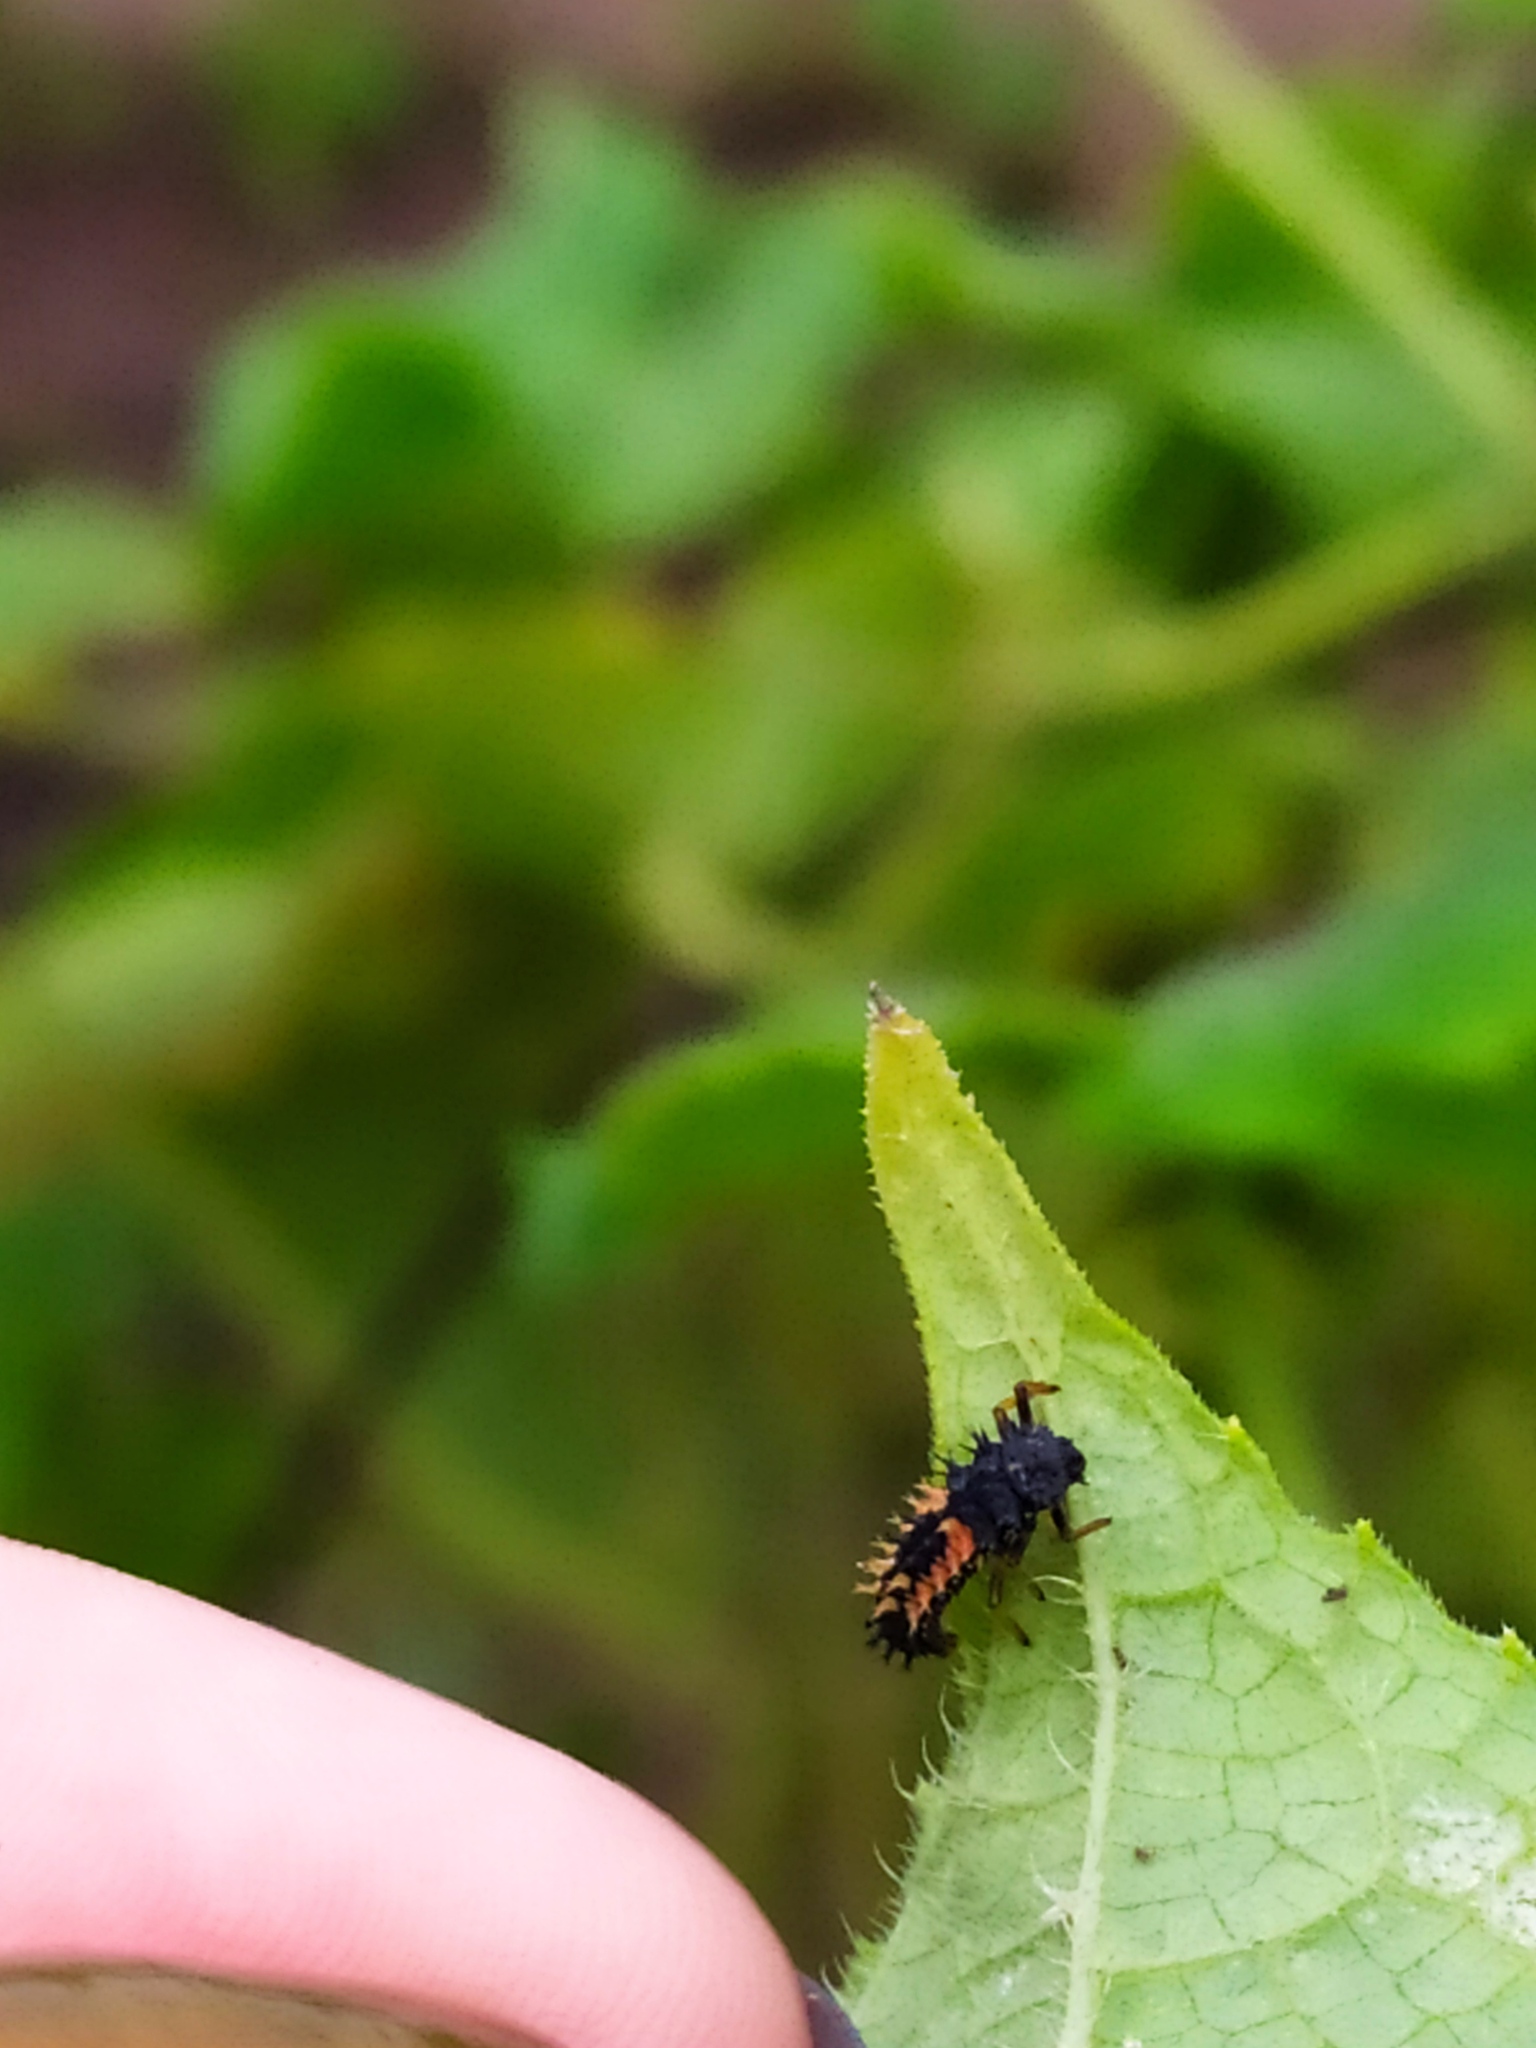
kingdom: Animalia
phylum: Arthropoda
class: Insecta
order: Coleoptera
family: Coccinellidae
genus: Harmonia
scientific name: Harmonia axyridis
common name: Harlequin ladybird
